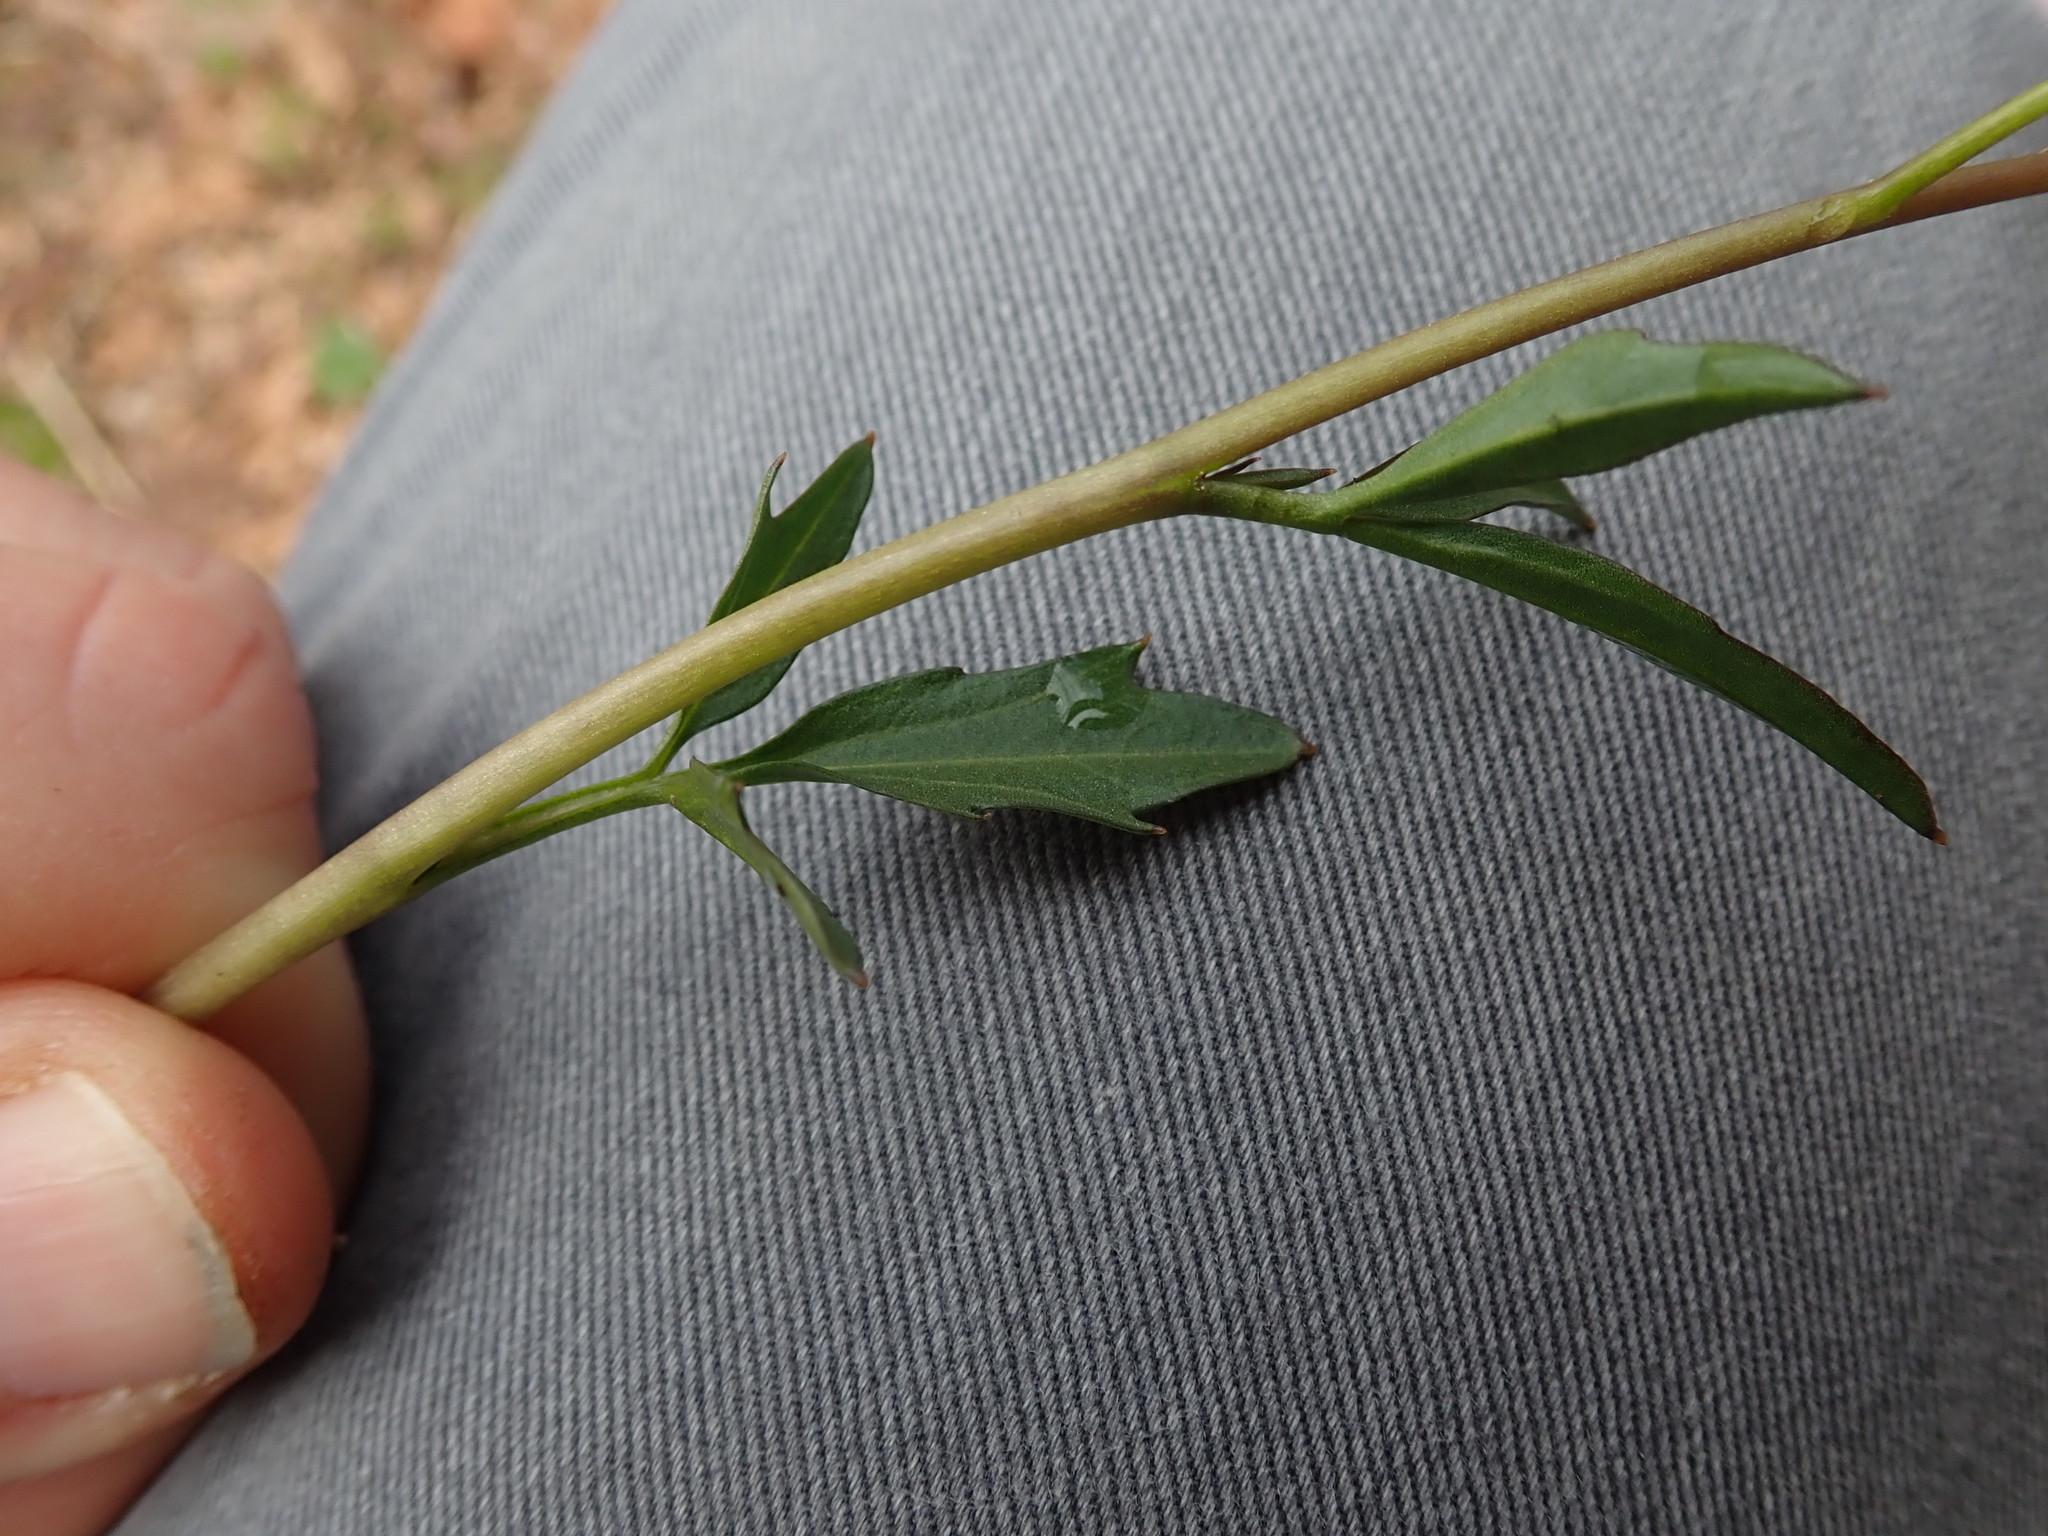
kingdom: Plantae
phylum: Tracheophyta
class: Magnoliopsida
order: Brassicales
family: Brassicaceae
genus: Cardamine
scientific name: Cardamine nuttallii
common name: Nuttall's toothwort
